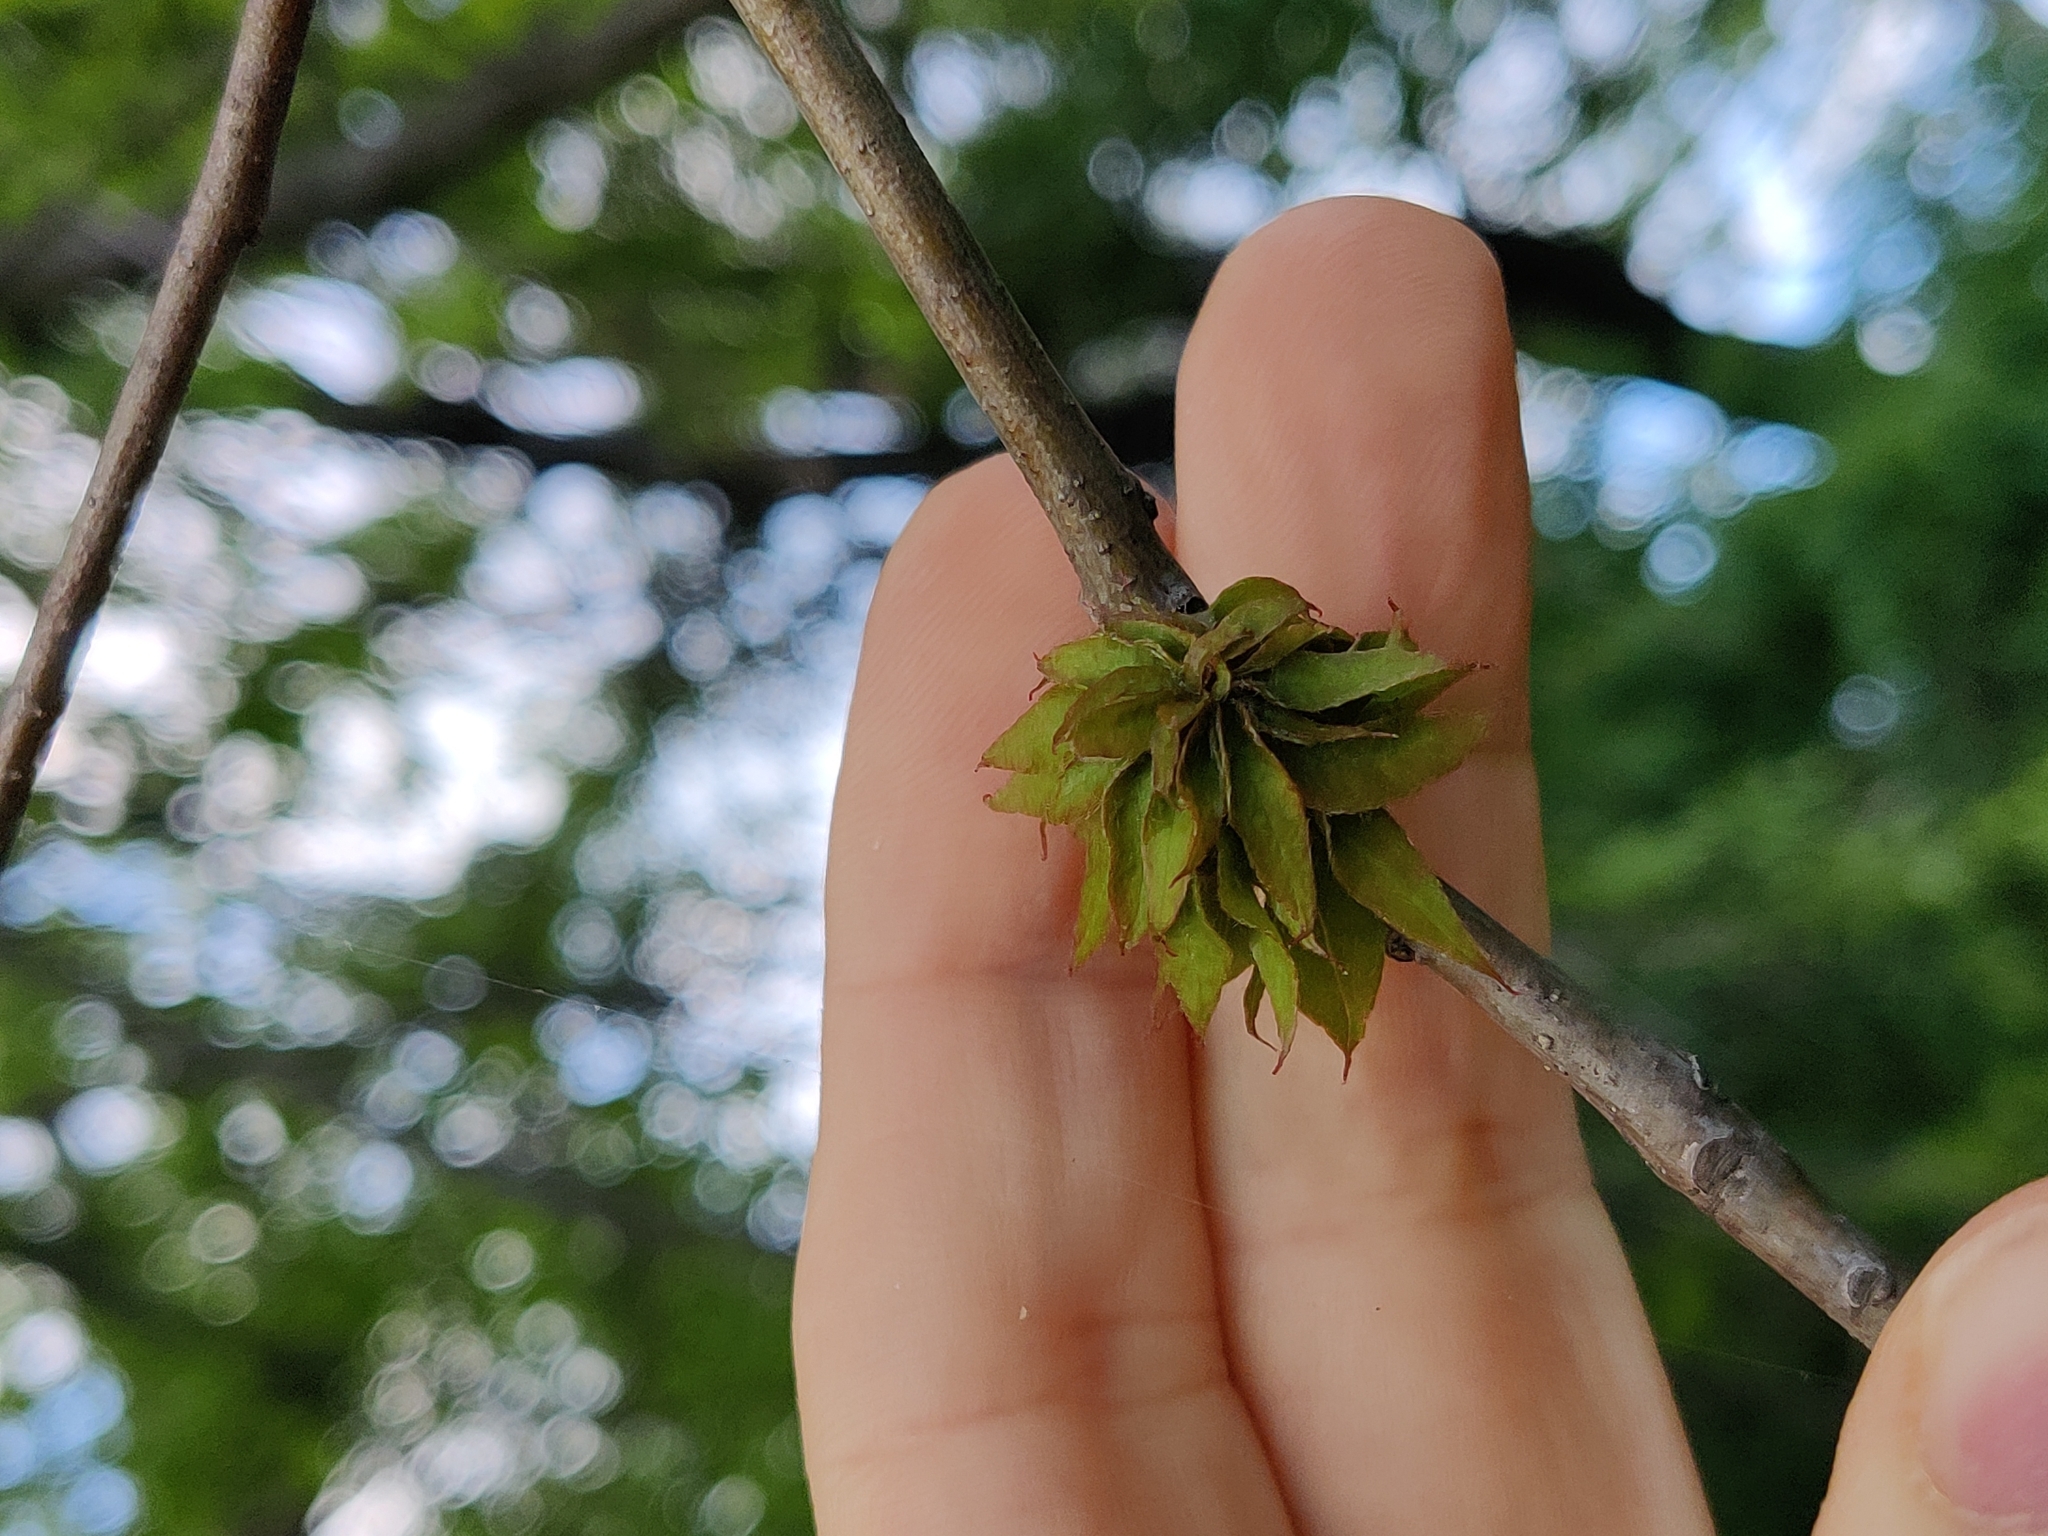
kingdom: Animalia
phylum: Arthropoda
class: Insecta
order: Hymenoptera
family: Cynipidae
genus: Dryocosmus
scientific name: Dryocosmus
